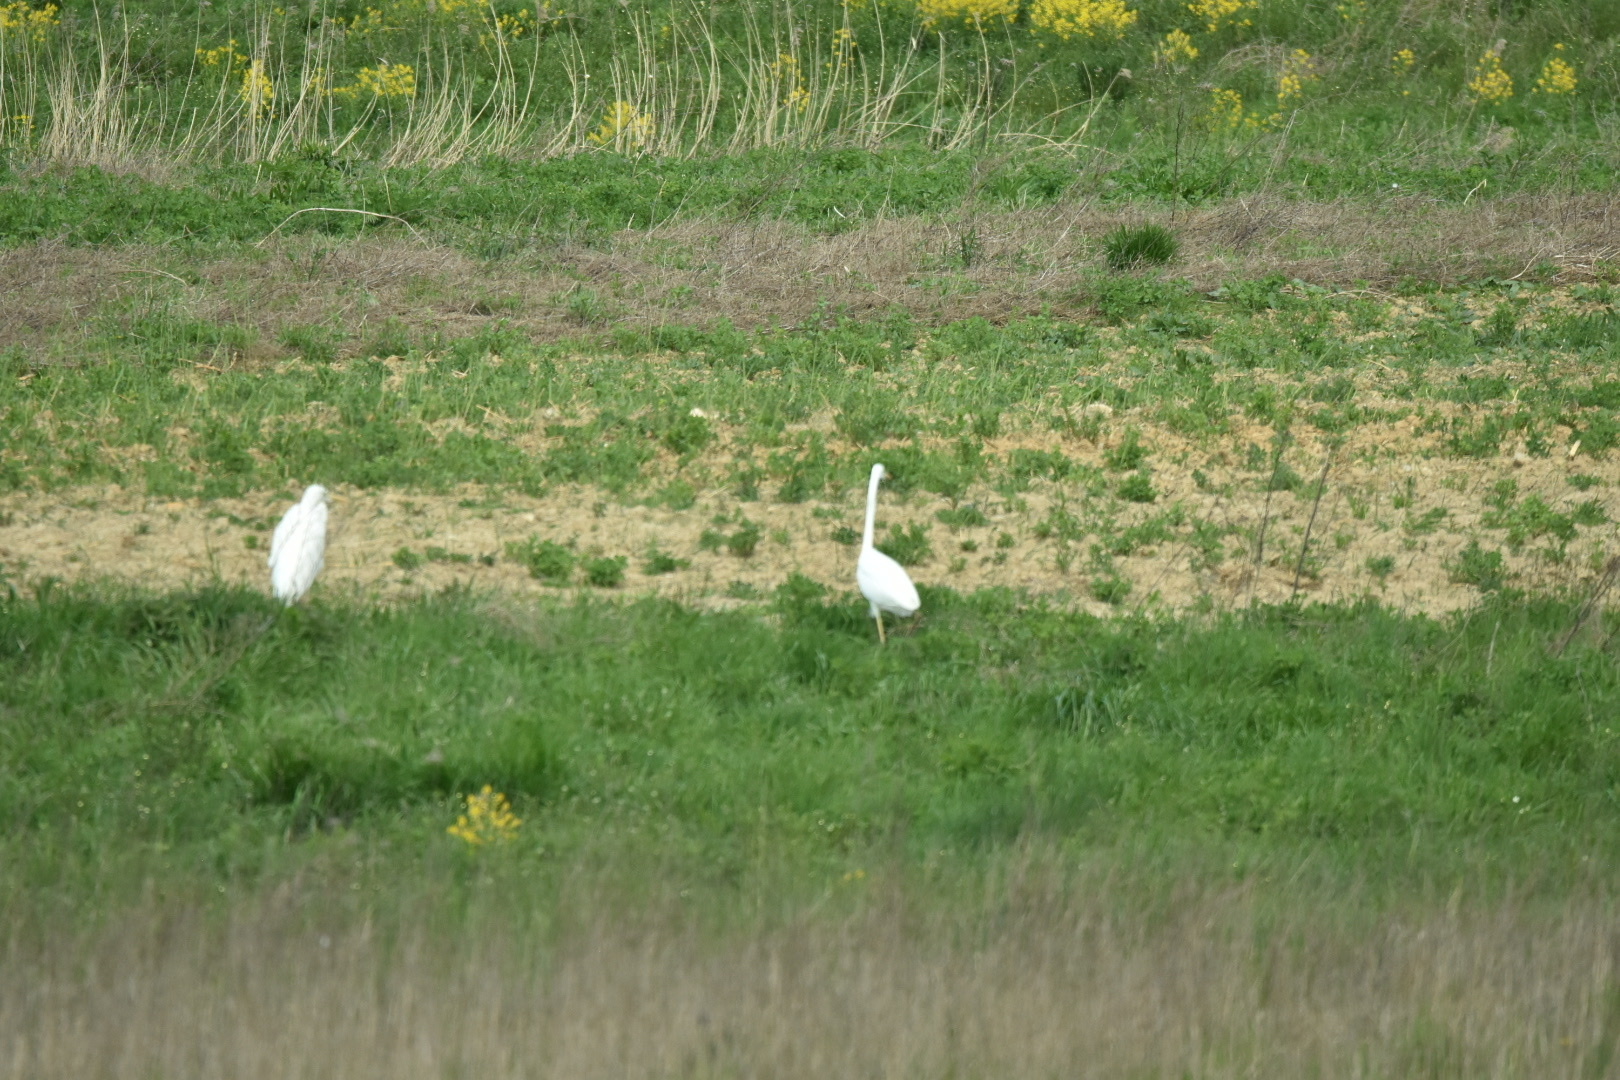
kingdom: Animalia
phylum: Chordata
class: Aves
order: Pelecaniformes
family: Ardeidae
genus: Ardea
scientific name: Ardea alba
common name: Great egret
